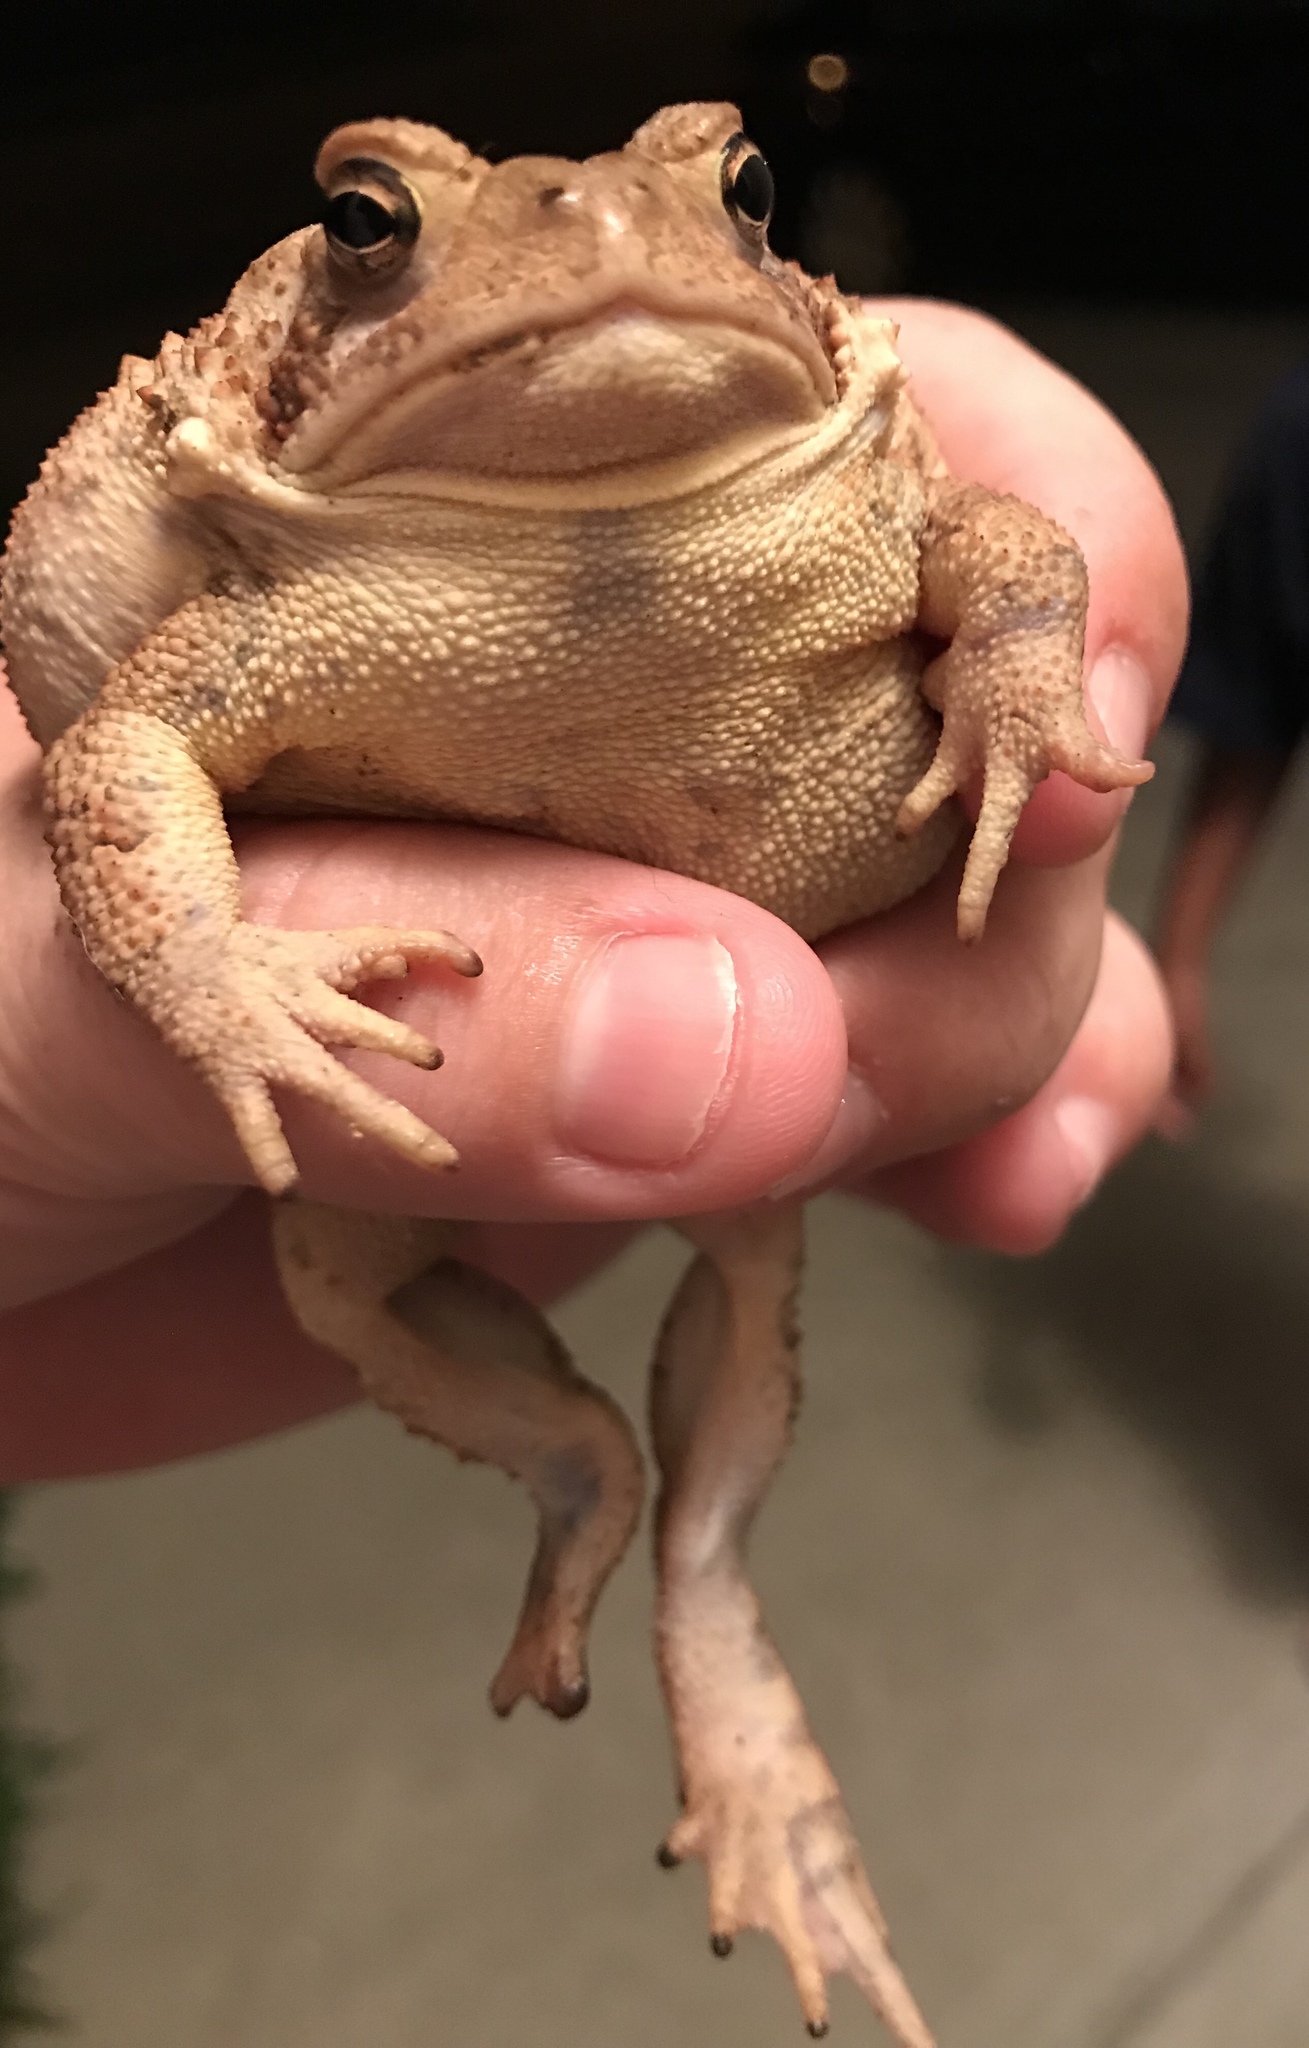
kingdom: Animalia
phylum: Chordata
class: Amphibia
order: Anura
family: Bufonidae
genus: Anaxyrus
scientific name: Anaxyrus americanus
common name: American toad
